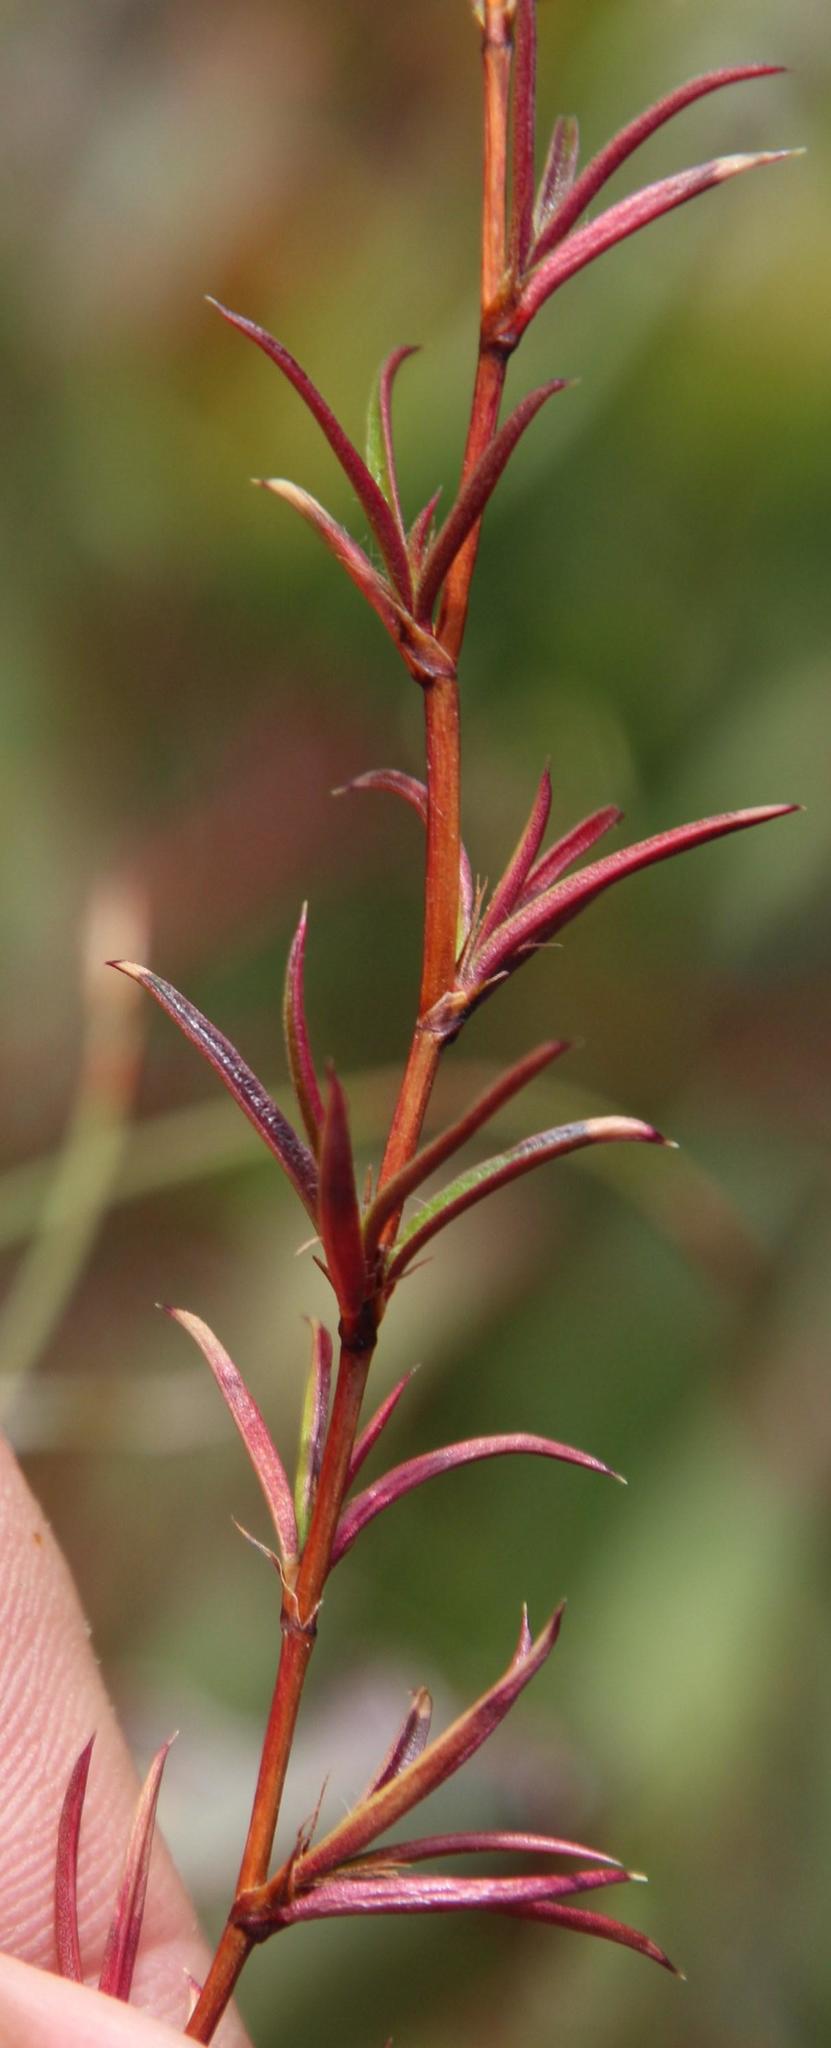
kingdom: Plantae
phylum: Tracheophyta
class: Magnoliopsida
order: Rosales
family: Rosaceae
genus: Cliffortia
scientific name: Cliffortia uncinata
